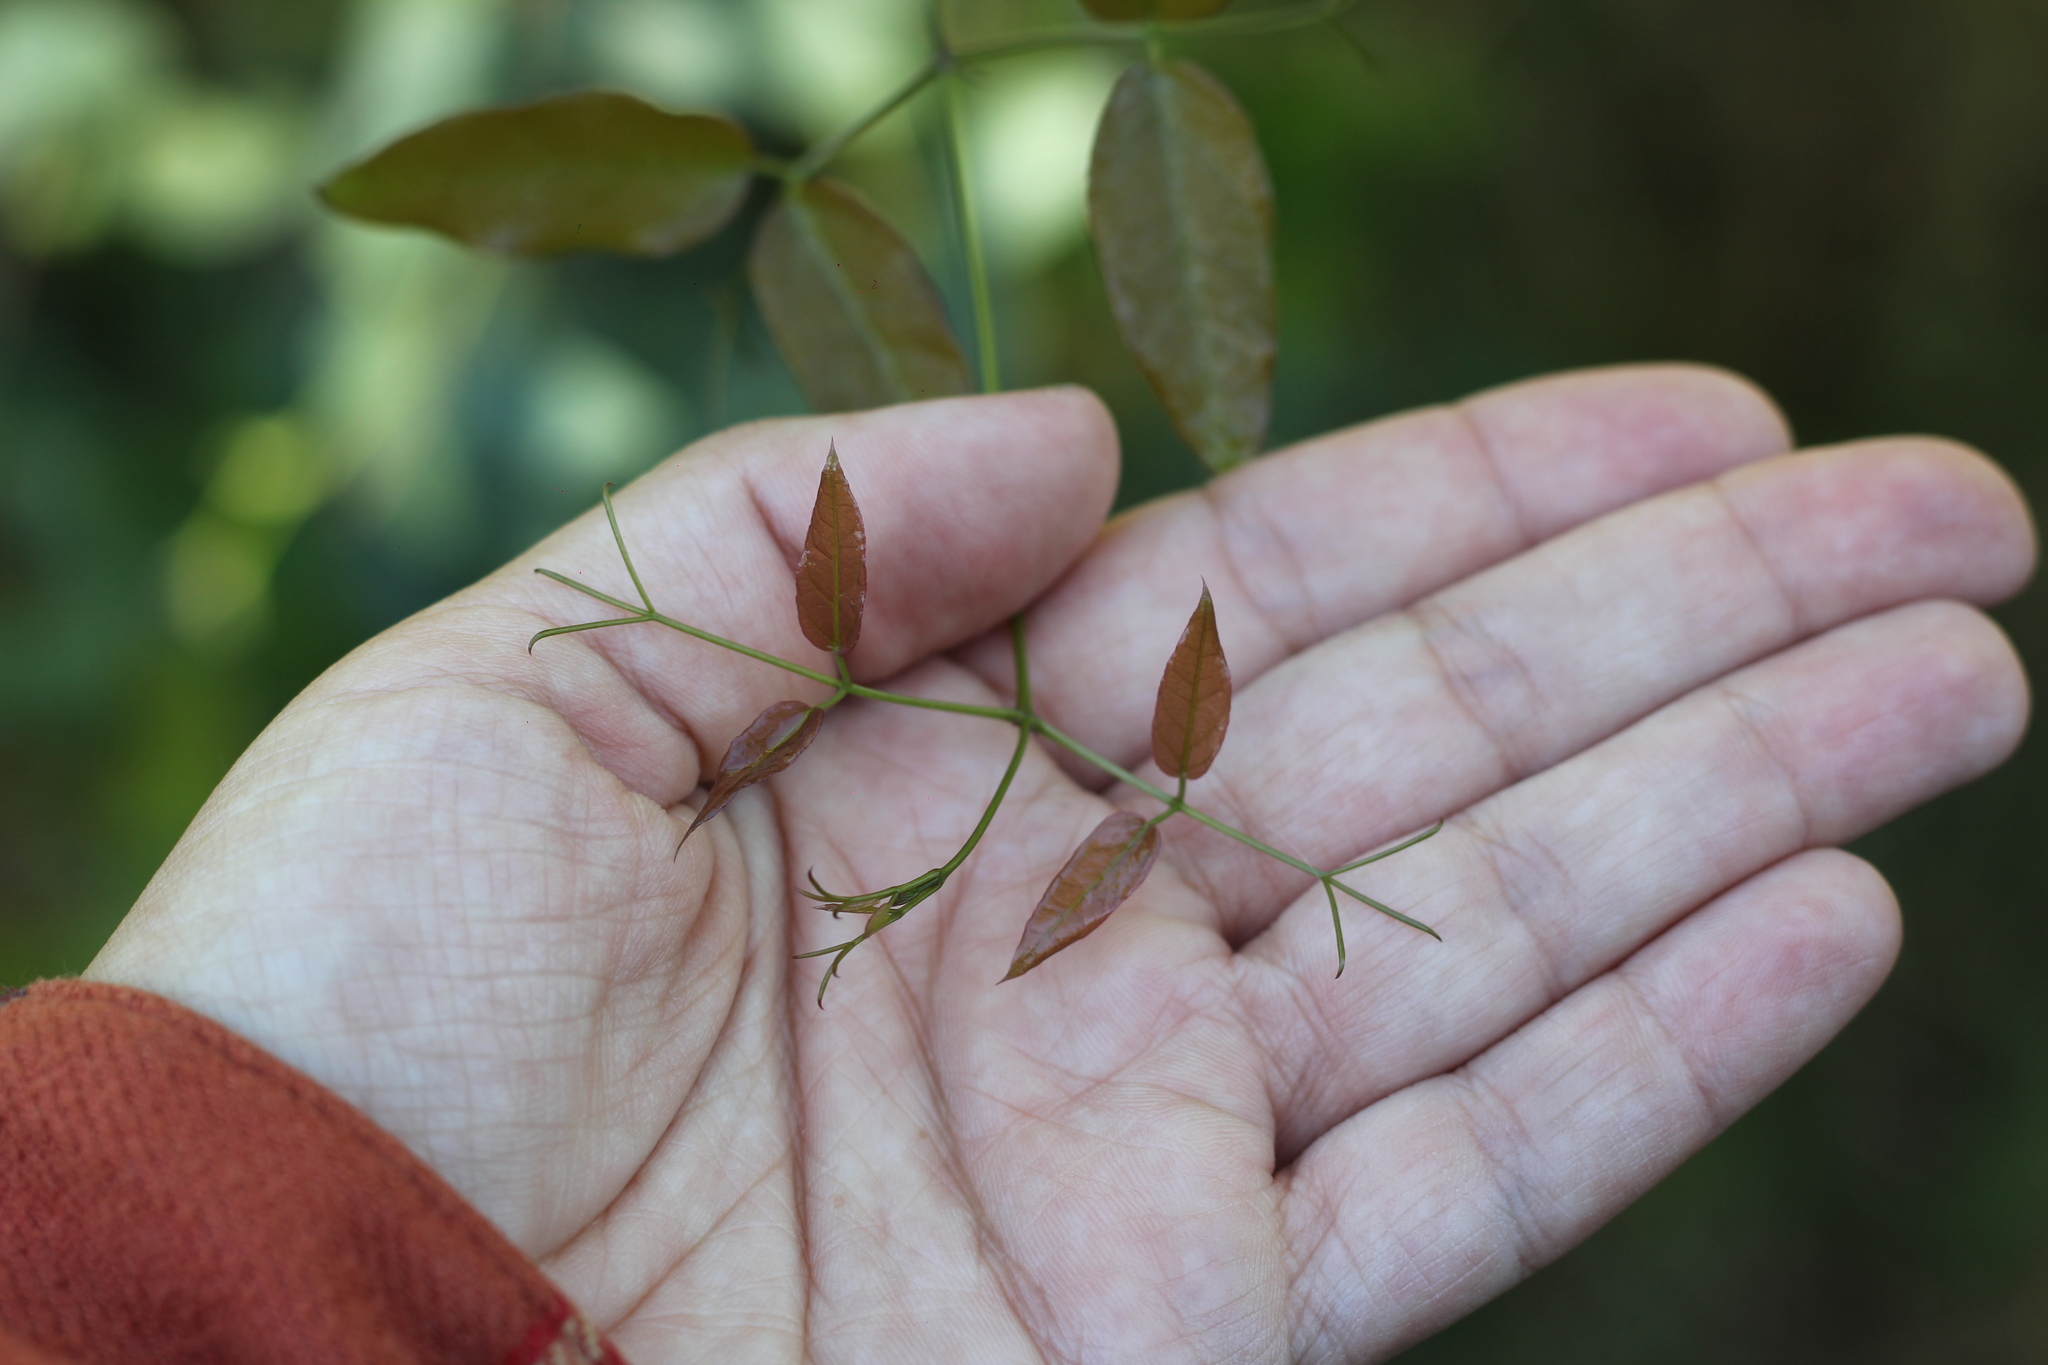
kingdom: Plantae
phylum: Tracheophyta
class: Magnoliopsida
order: Lamiales
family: Bignoniaceae
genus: Dolichandra
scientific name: Dolichandra unguis-cati
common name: Catclaw vine
